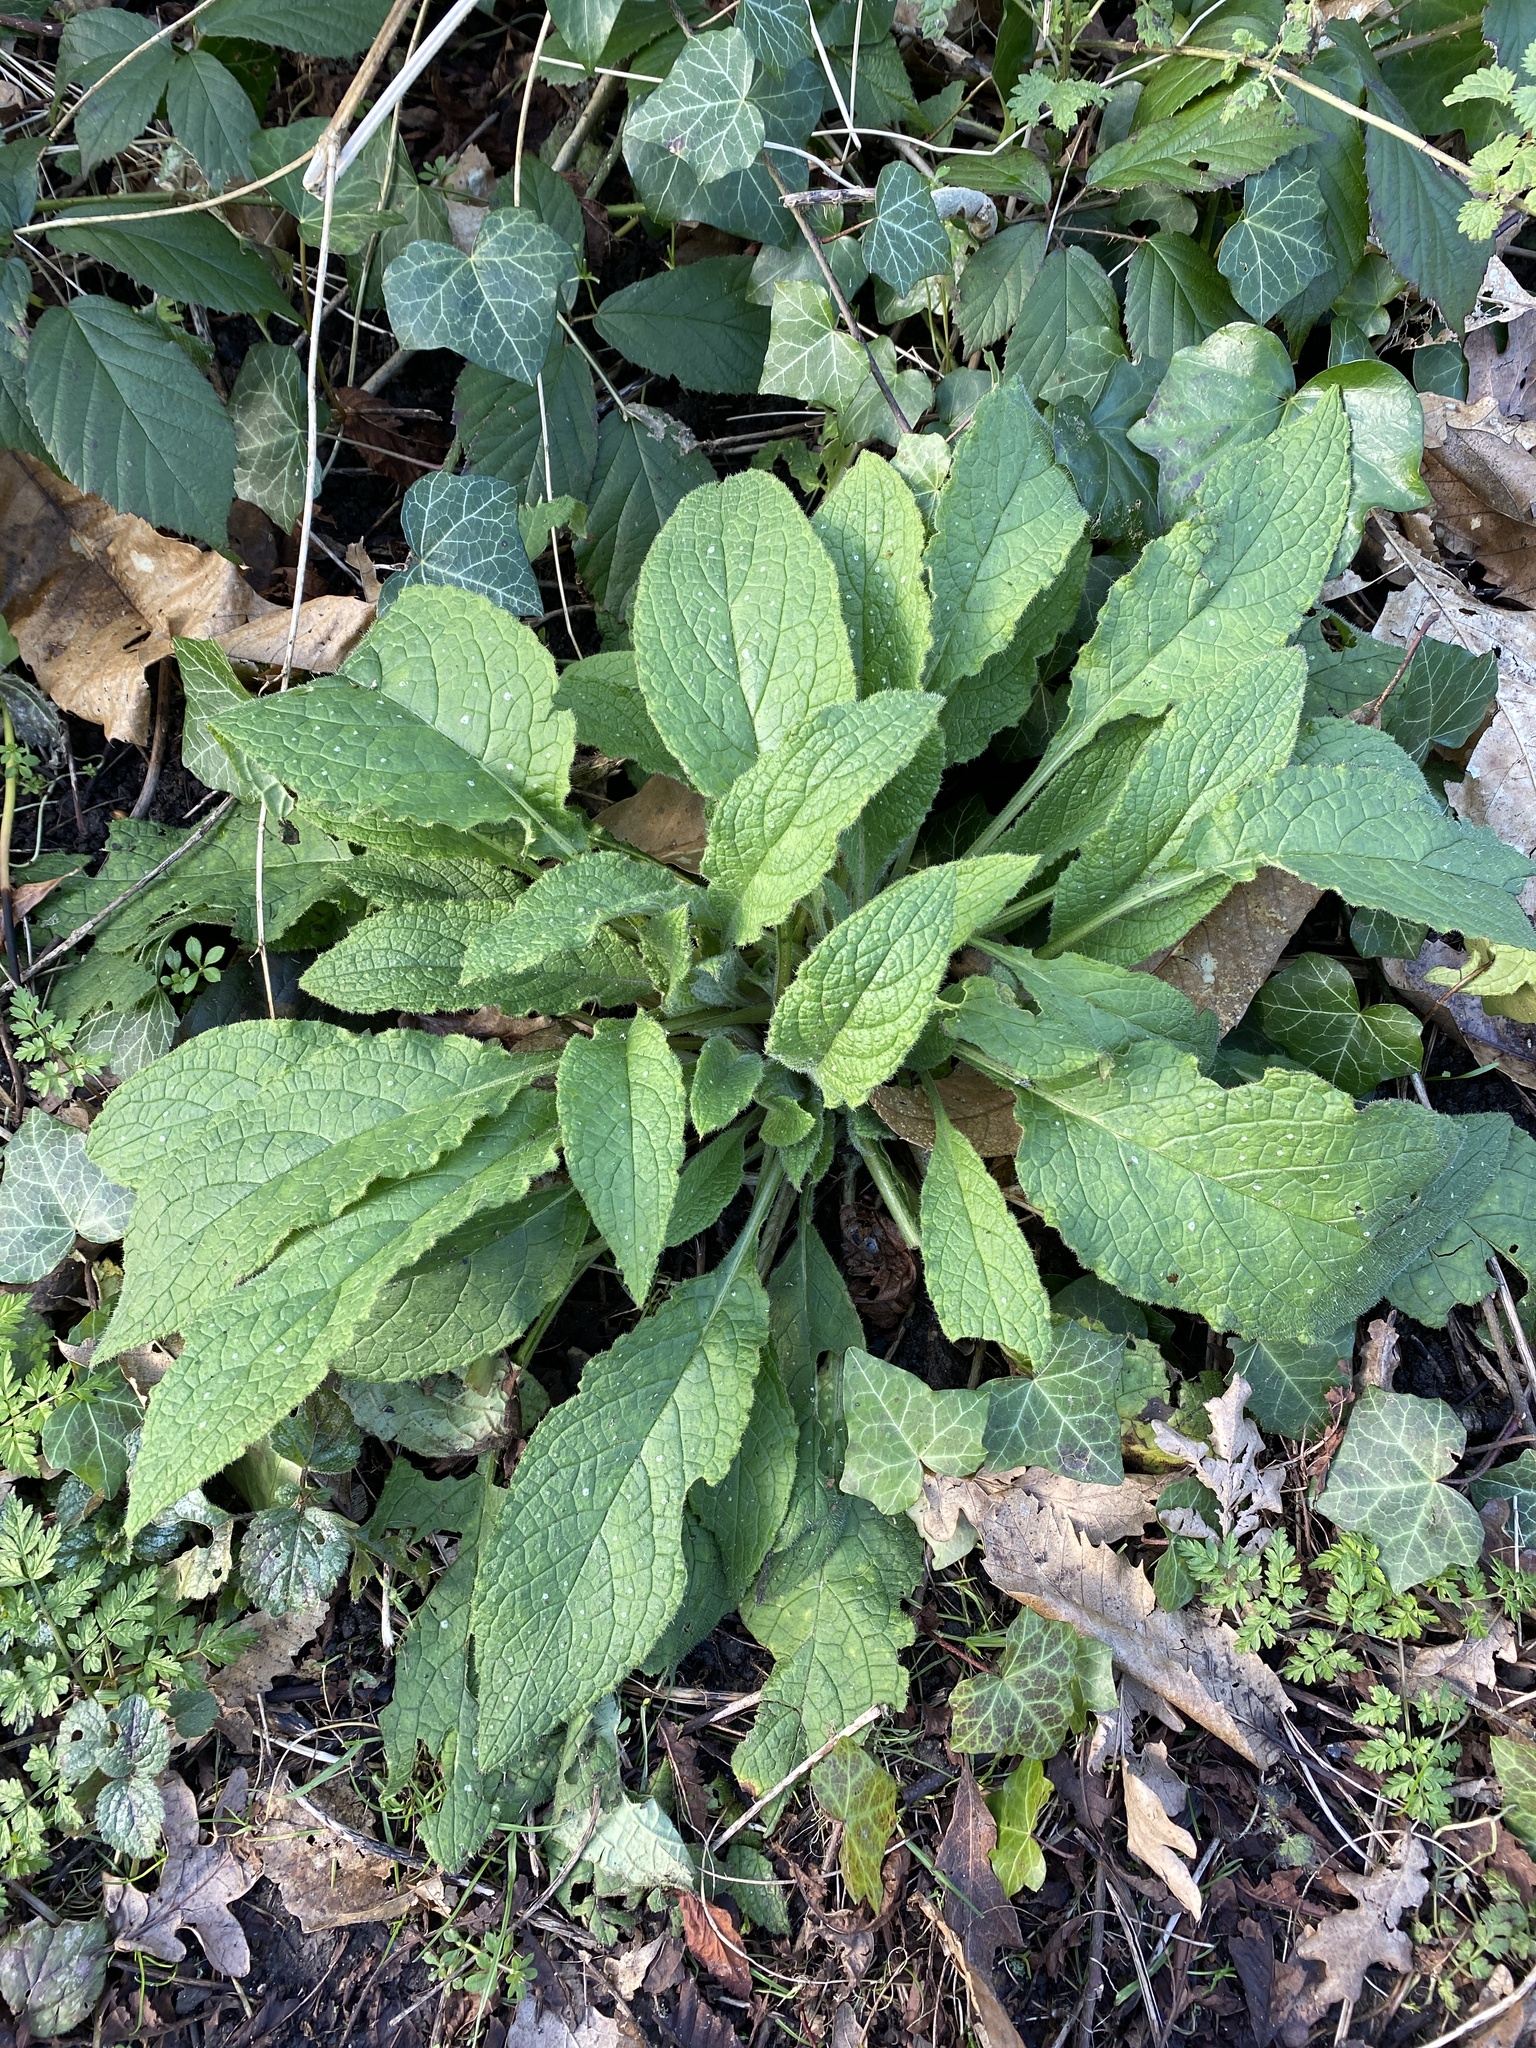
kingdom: Plantae
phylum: Tracheophyta
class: Magnoliopsida
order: Boraginales
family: Boraginaceae
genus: Pentaglottis
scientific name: Pentaglottis sempervirens
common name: Green alkanet
